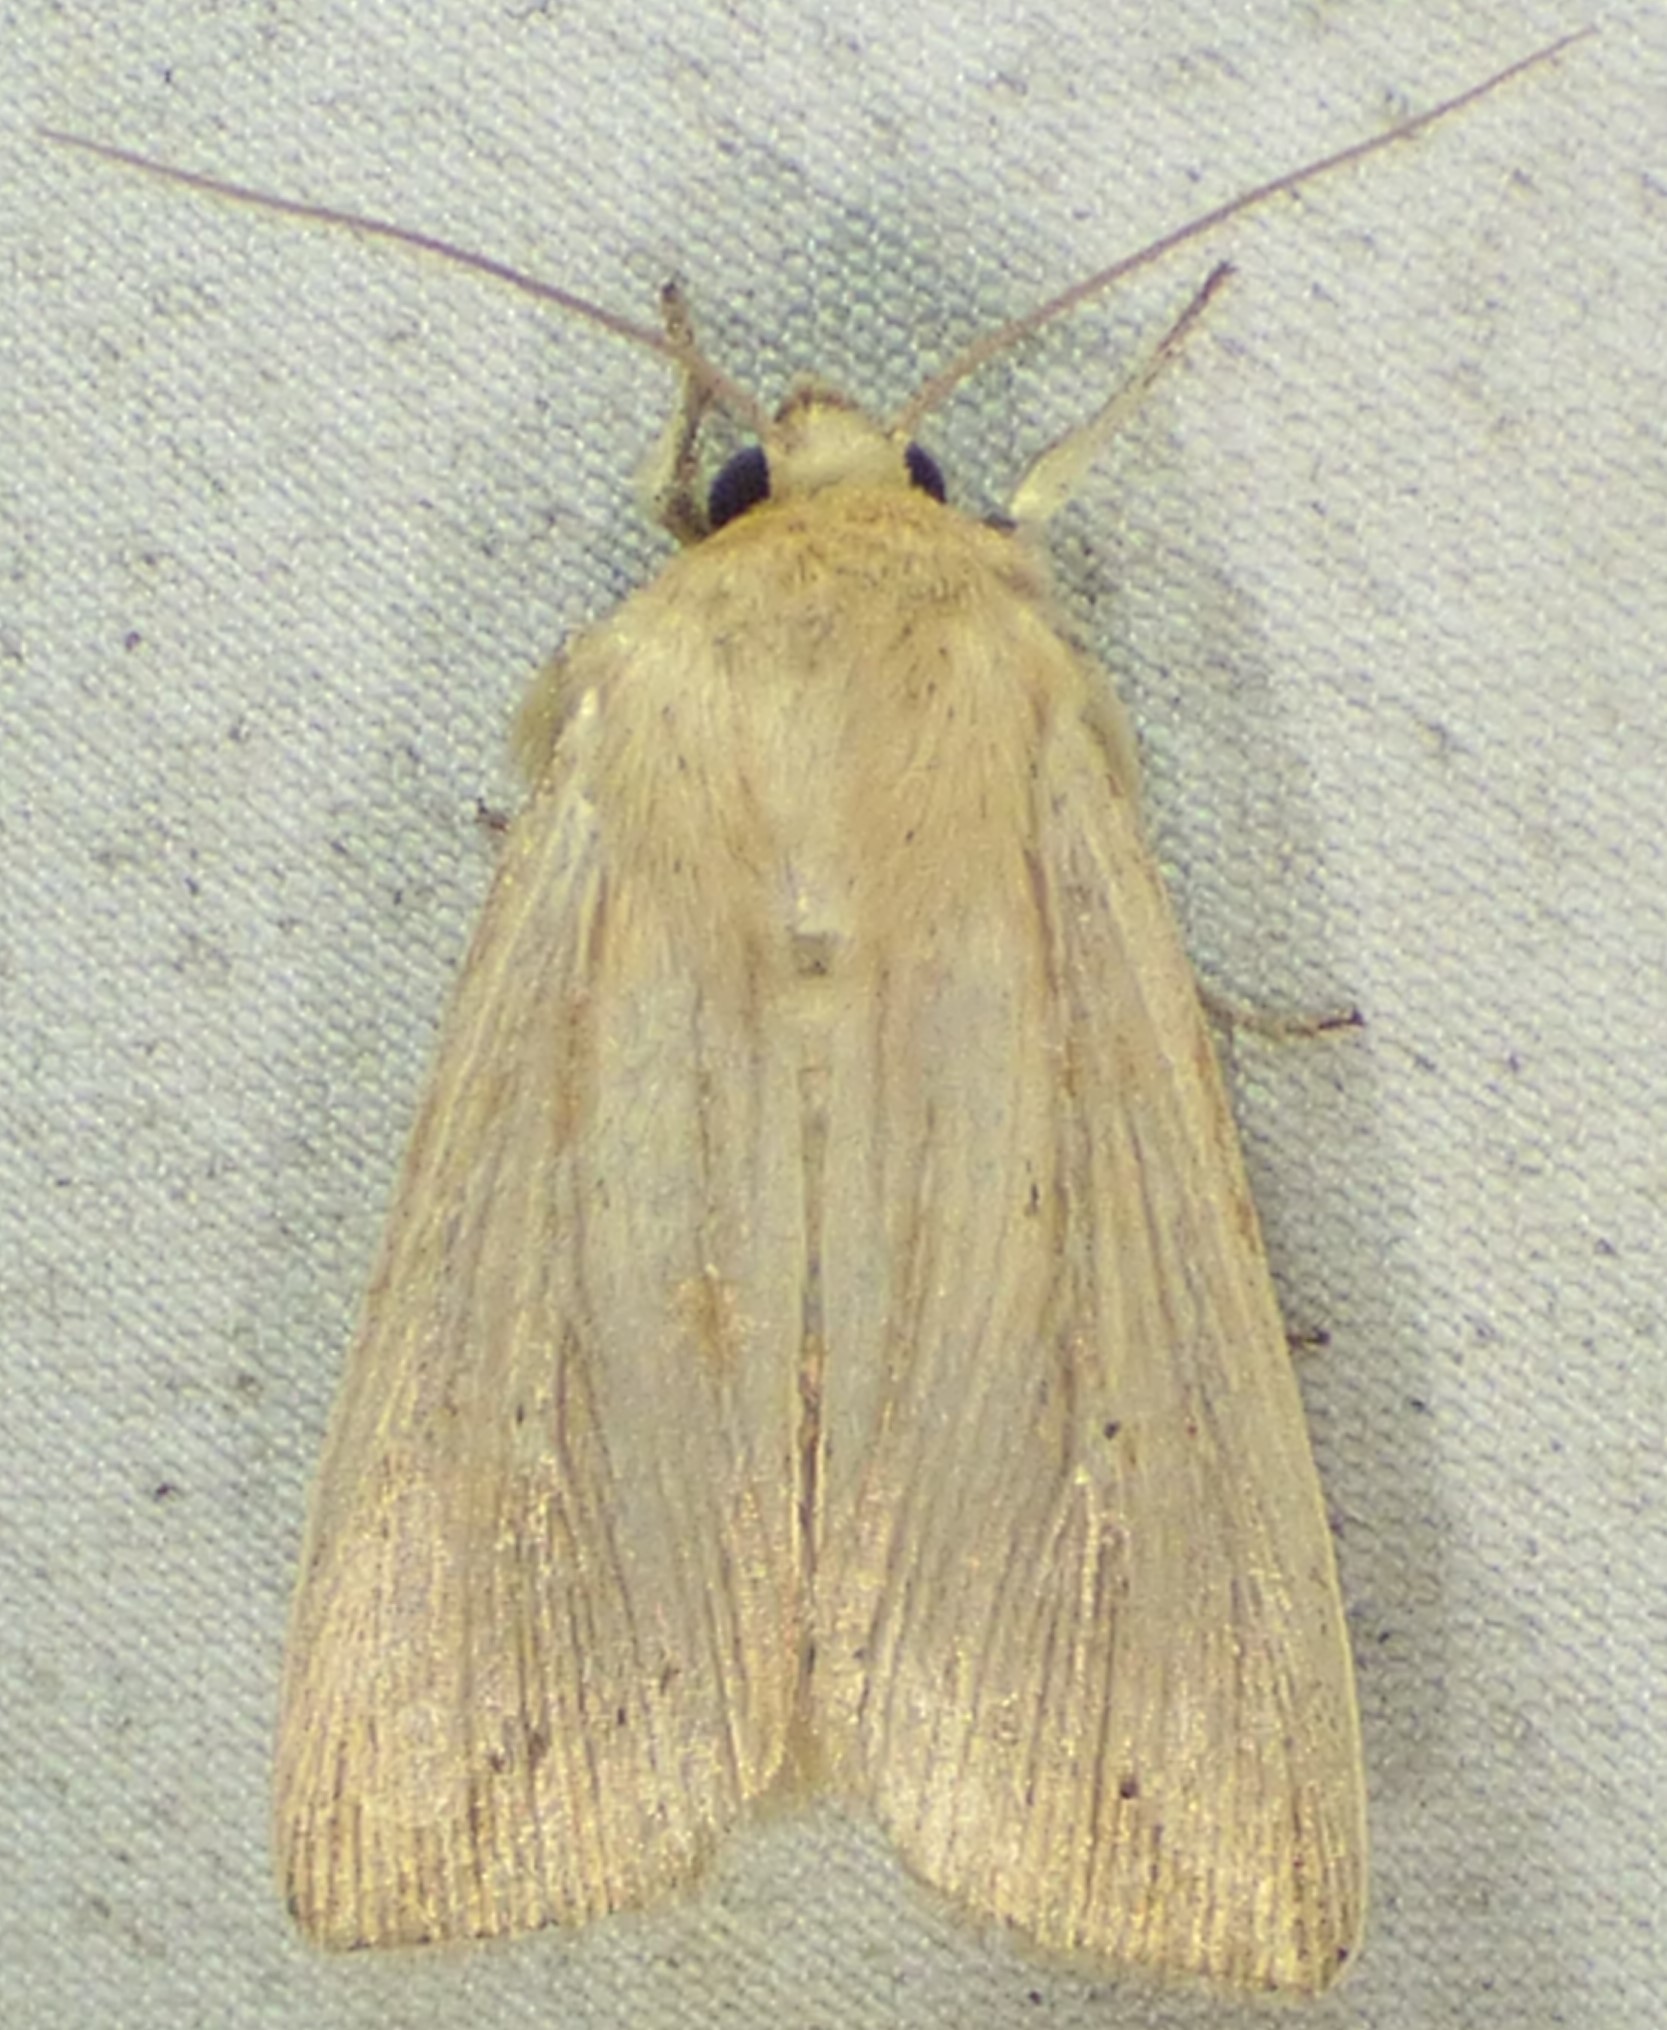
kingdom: Animalia
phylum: Arthropoda
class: Insecta
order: Lepidoptera
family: Noctuidae
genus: Leucania
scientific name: Leucania adjuta
